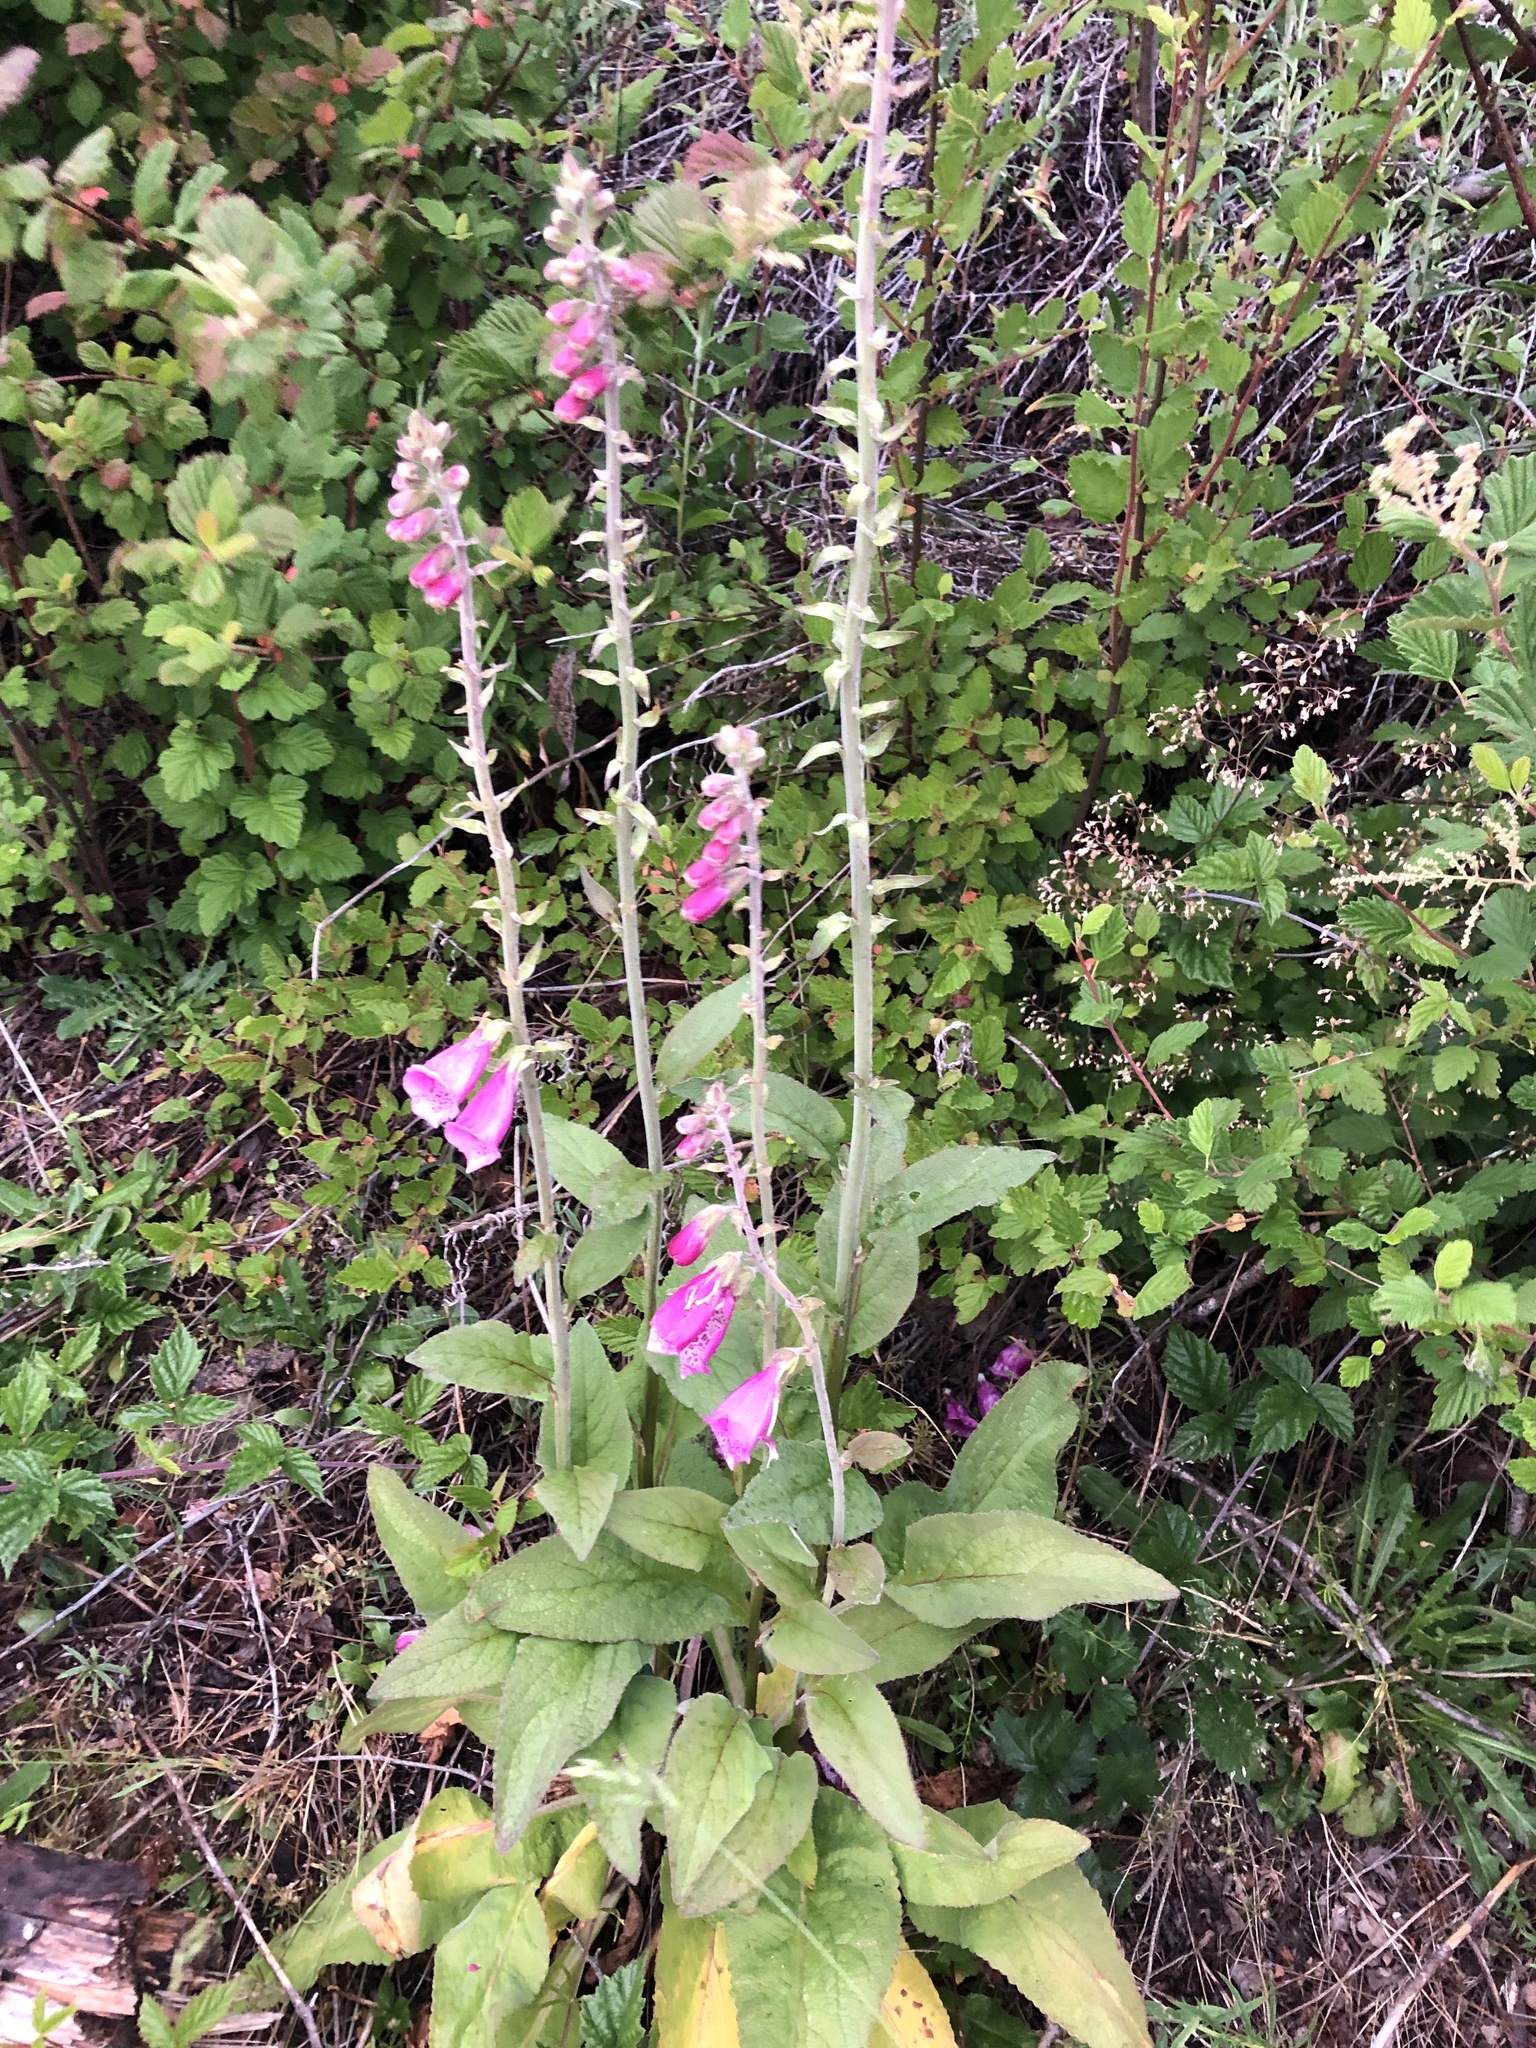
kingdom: Plantae
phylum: Tracheophyta
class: Magnoliopsida
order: Lamiales
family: Plantaginaceae
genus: Digitalis
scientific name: Digitalis purpurea
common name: Foxglove
